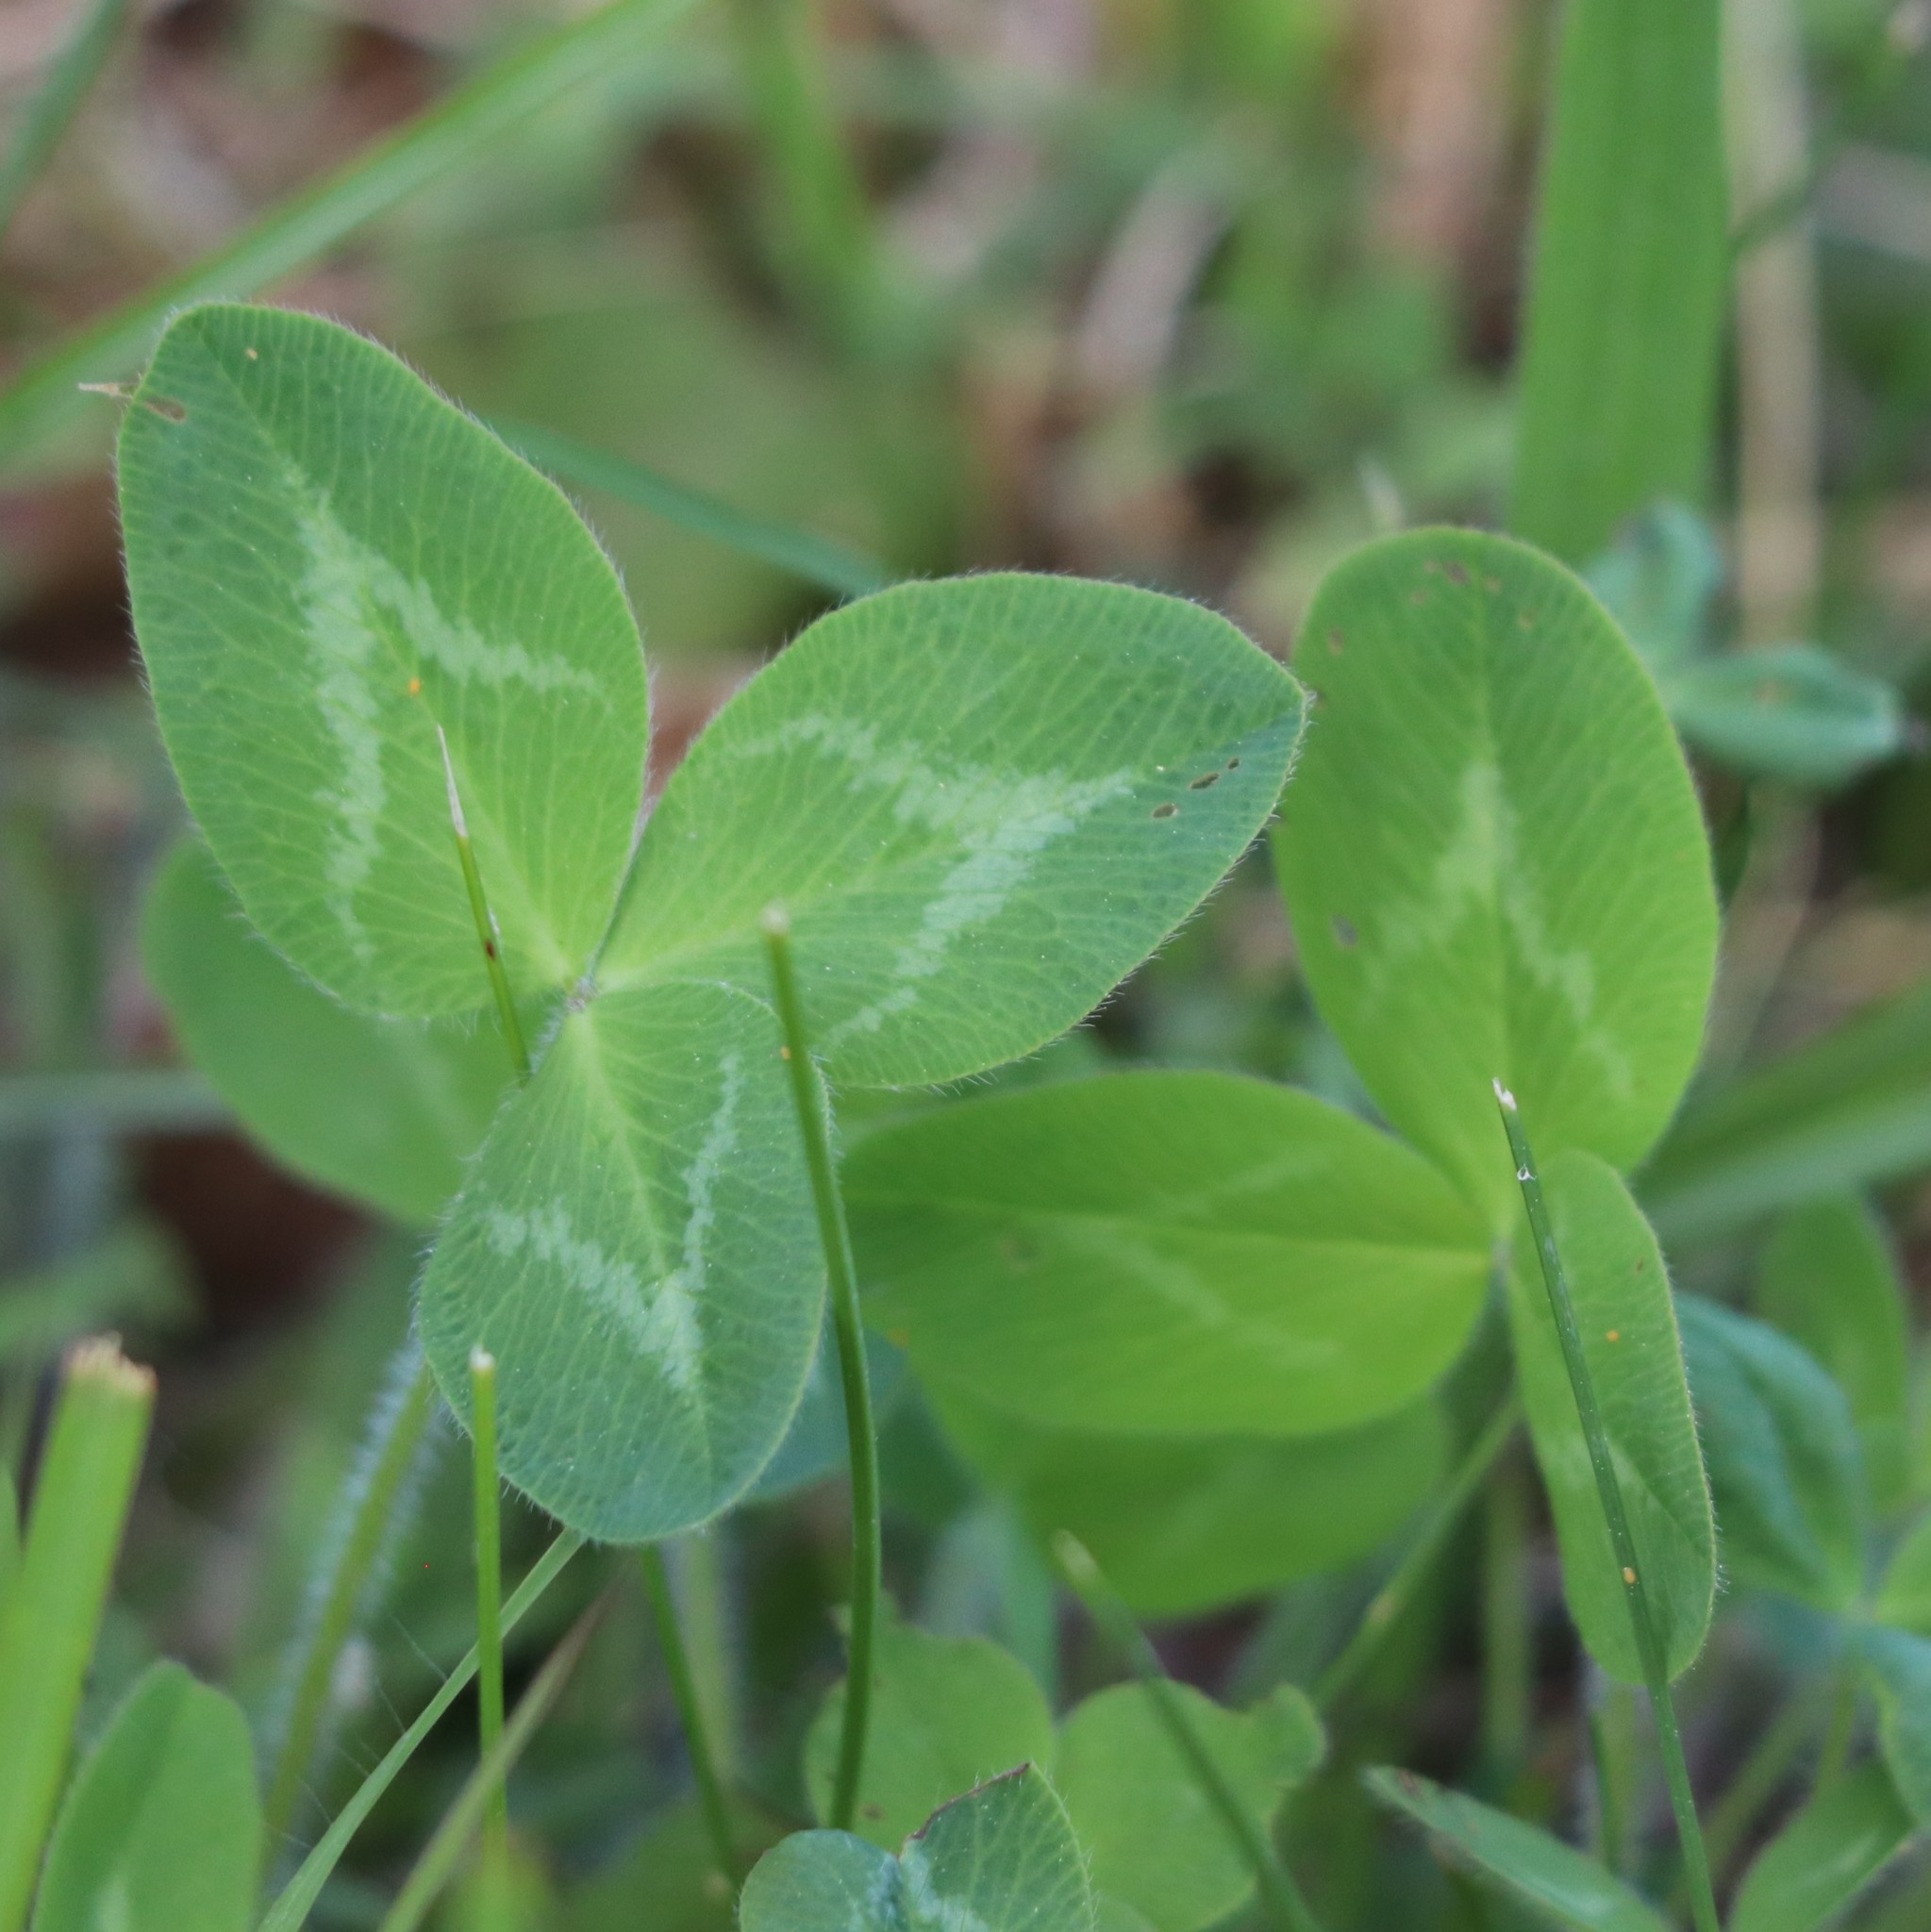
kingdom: Plantae
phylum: Tracheophyta
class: Magnoliopsida
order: Fabales
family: Fabaceae
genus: Trifolium
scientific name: Trifolium pratense
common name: Red clover
